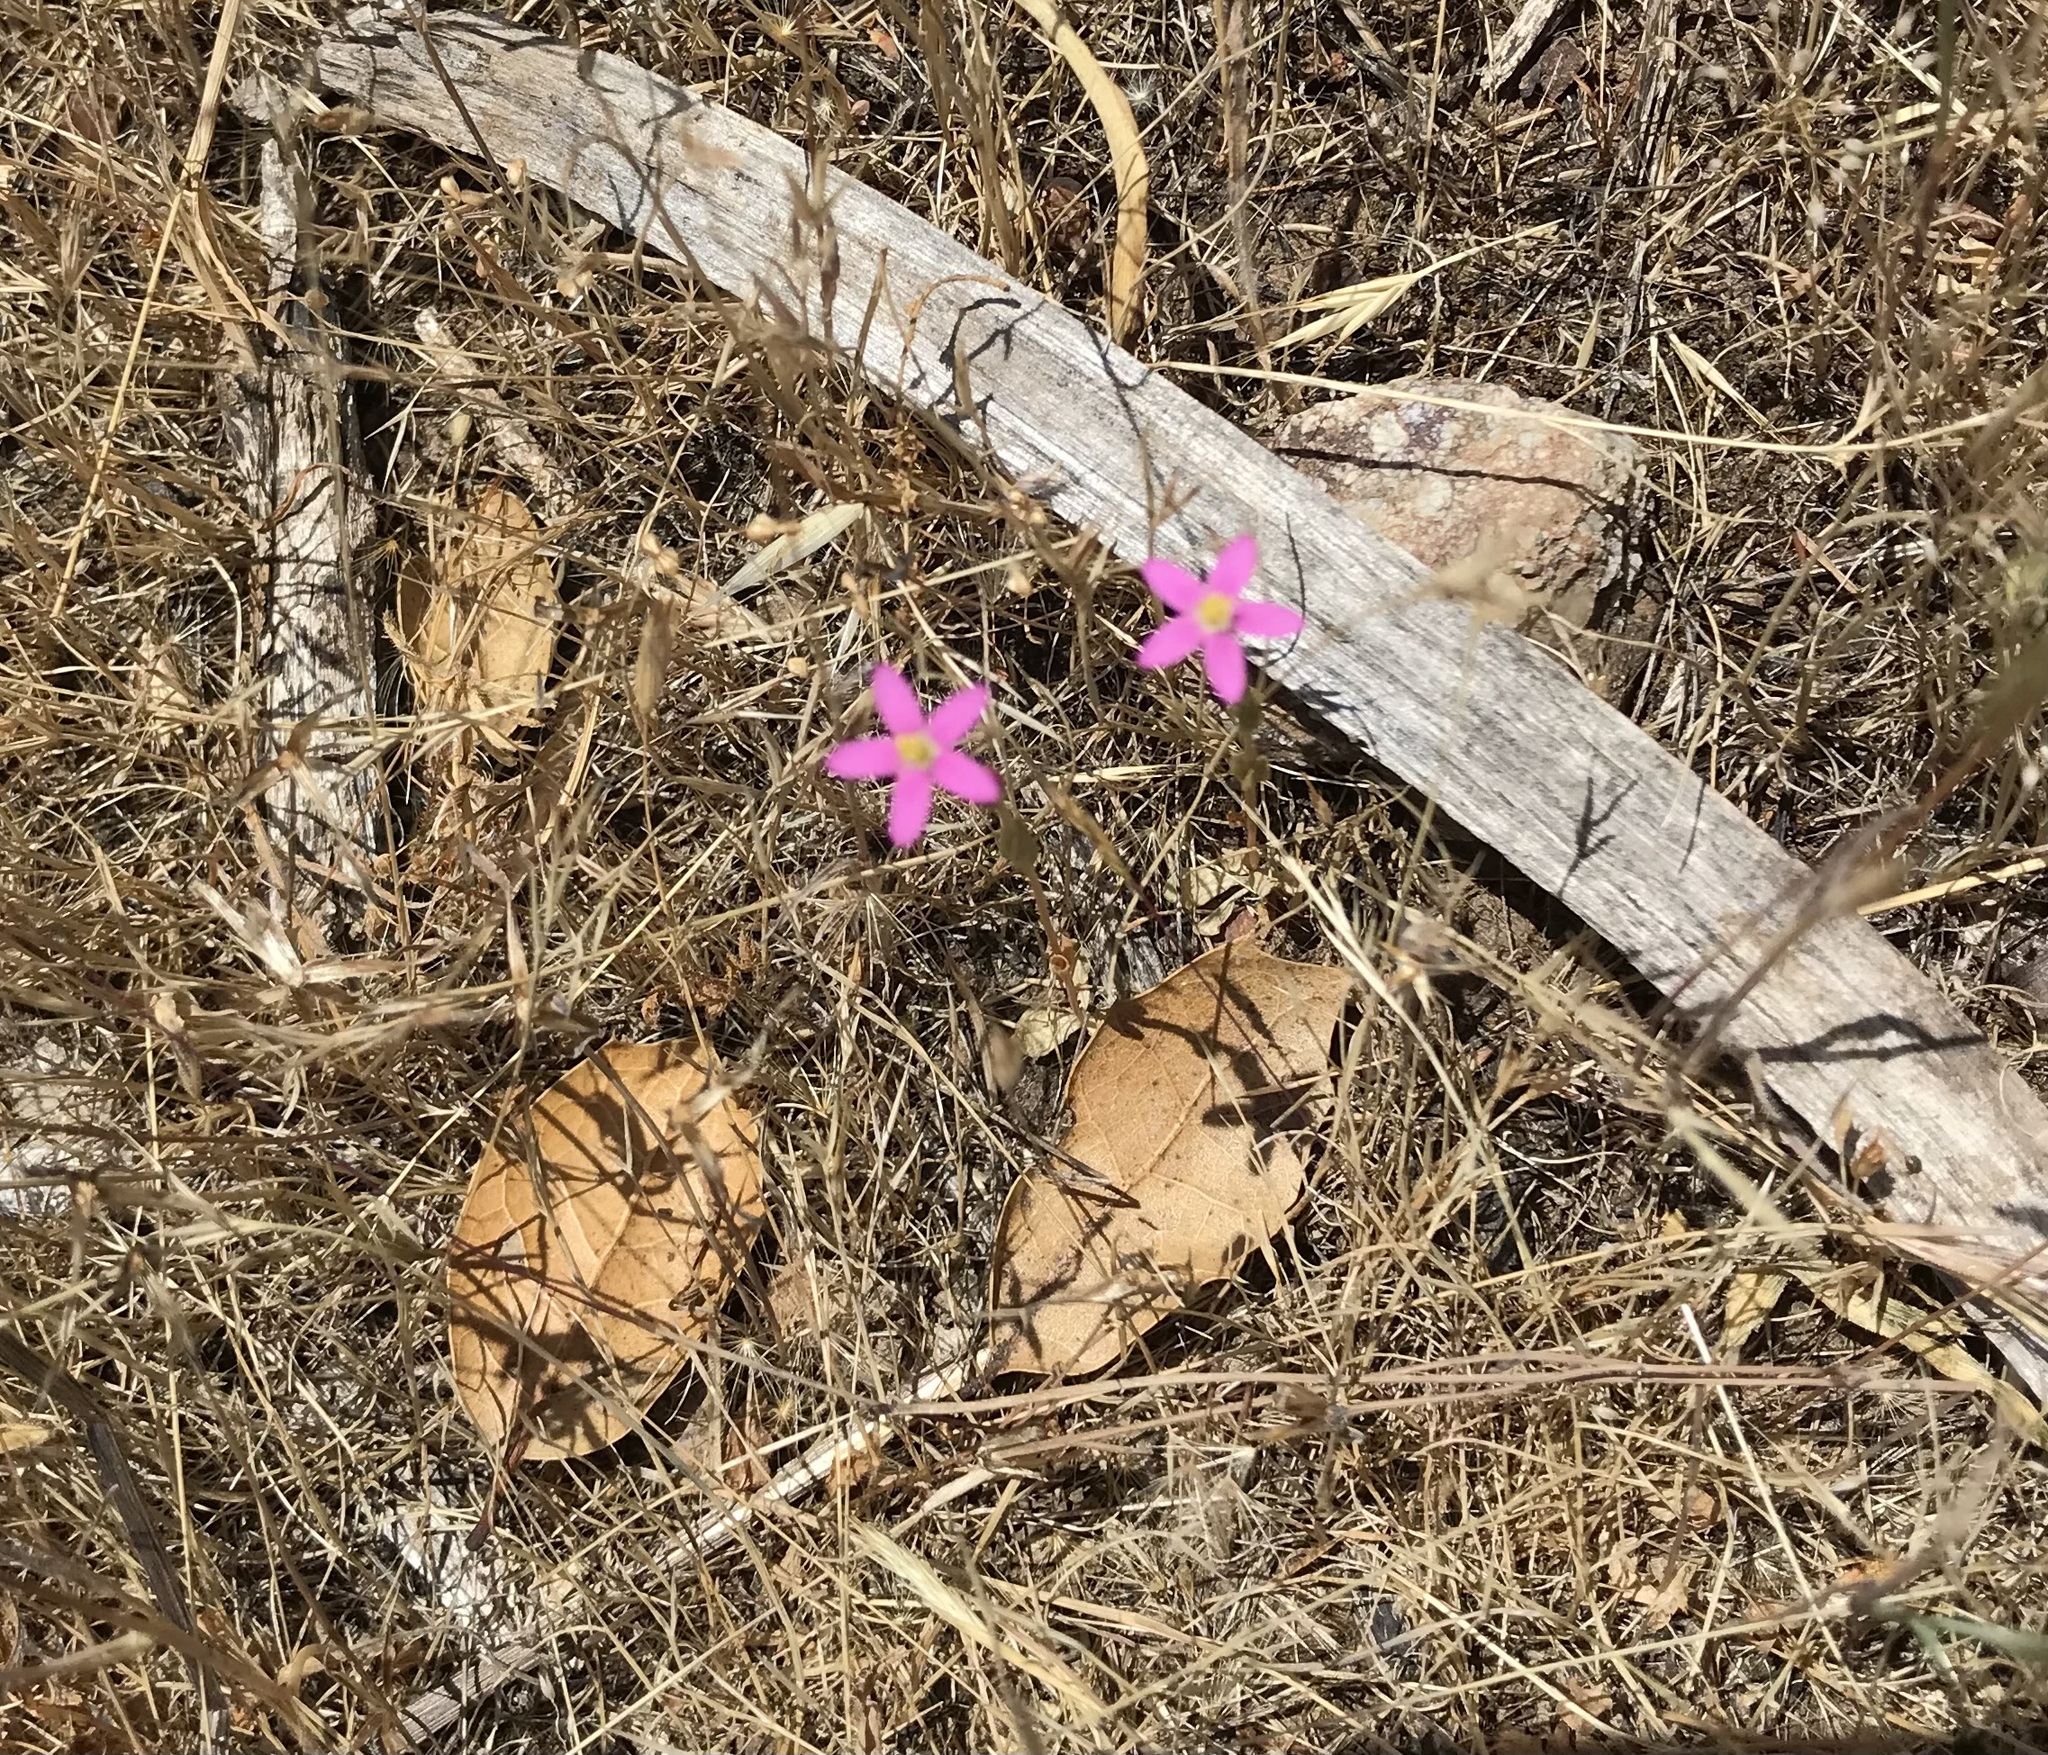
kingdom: Plantae
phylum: Tracheophyta
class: Magnoliopsida
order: Gentianales
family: Gentianaceae
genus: Zeltnera
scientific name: Zeltnera muhlenbergii
